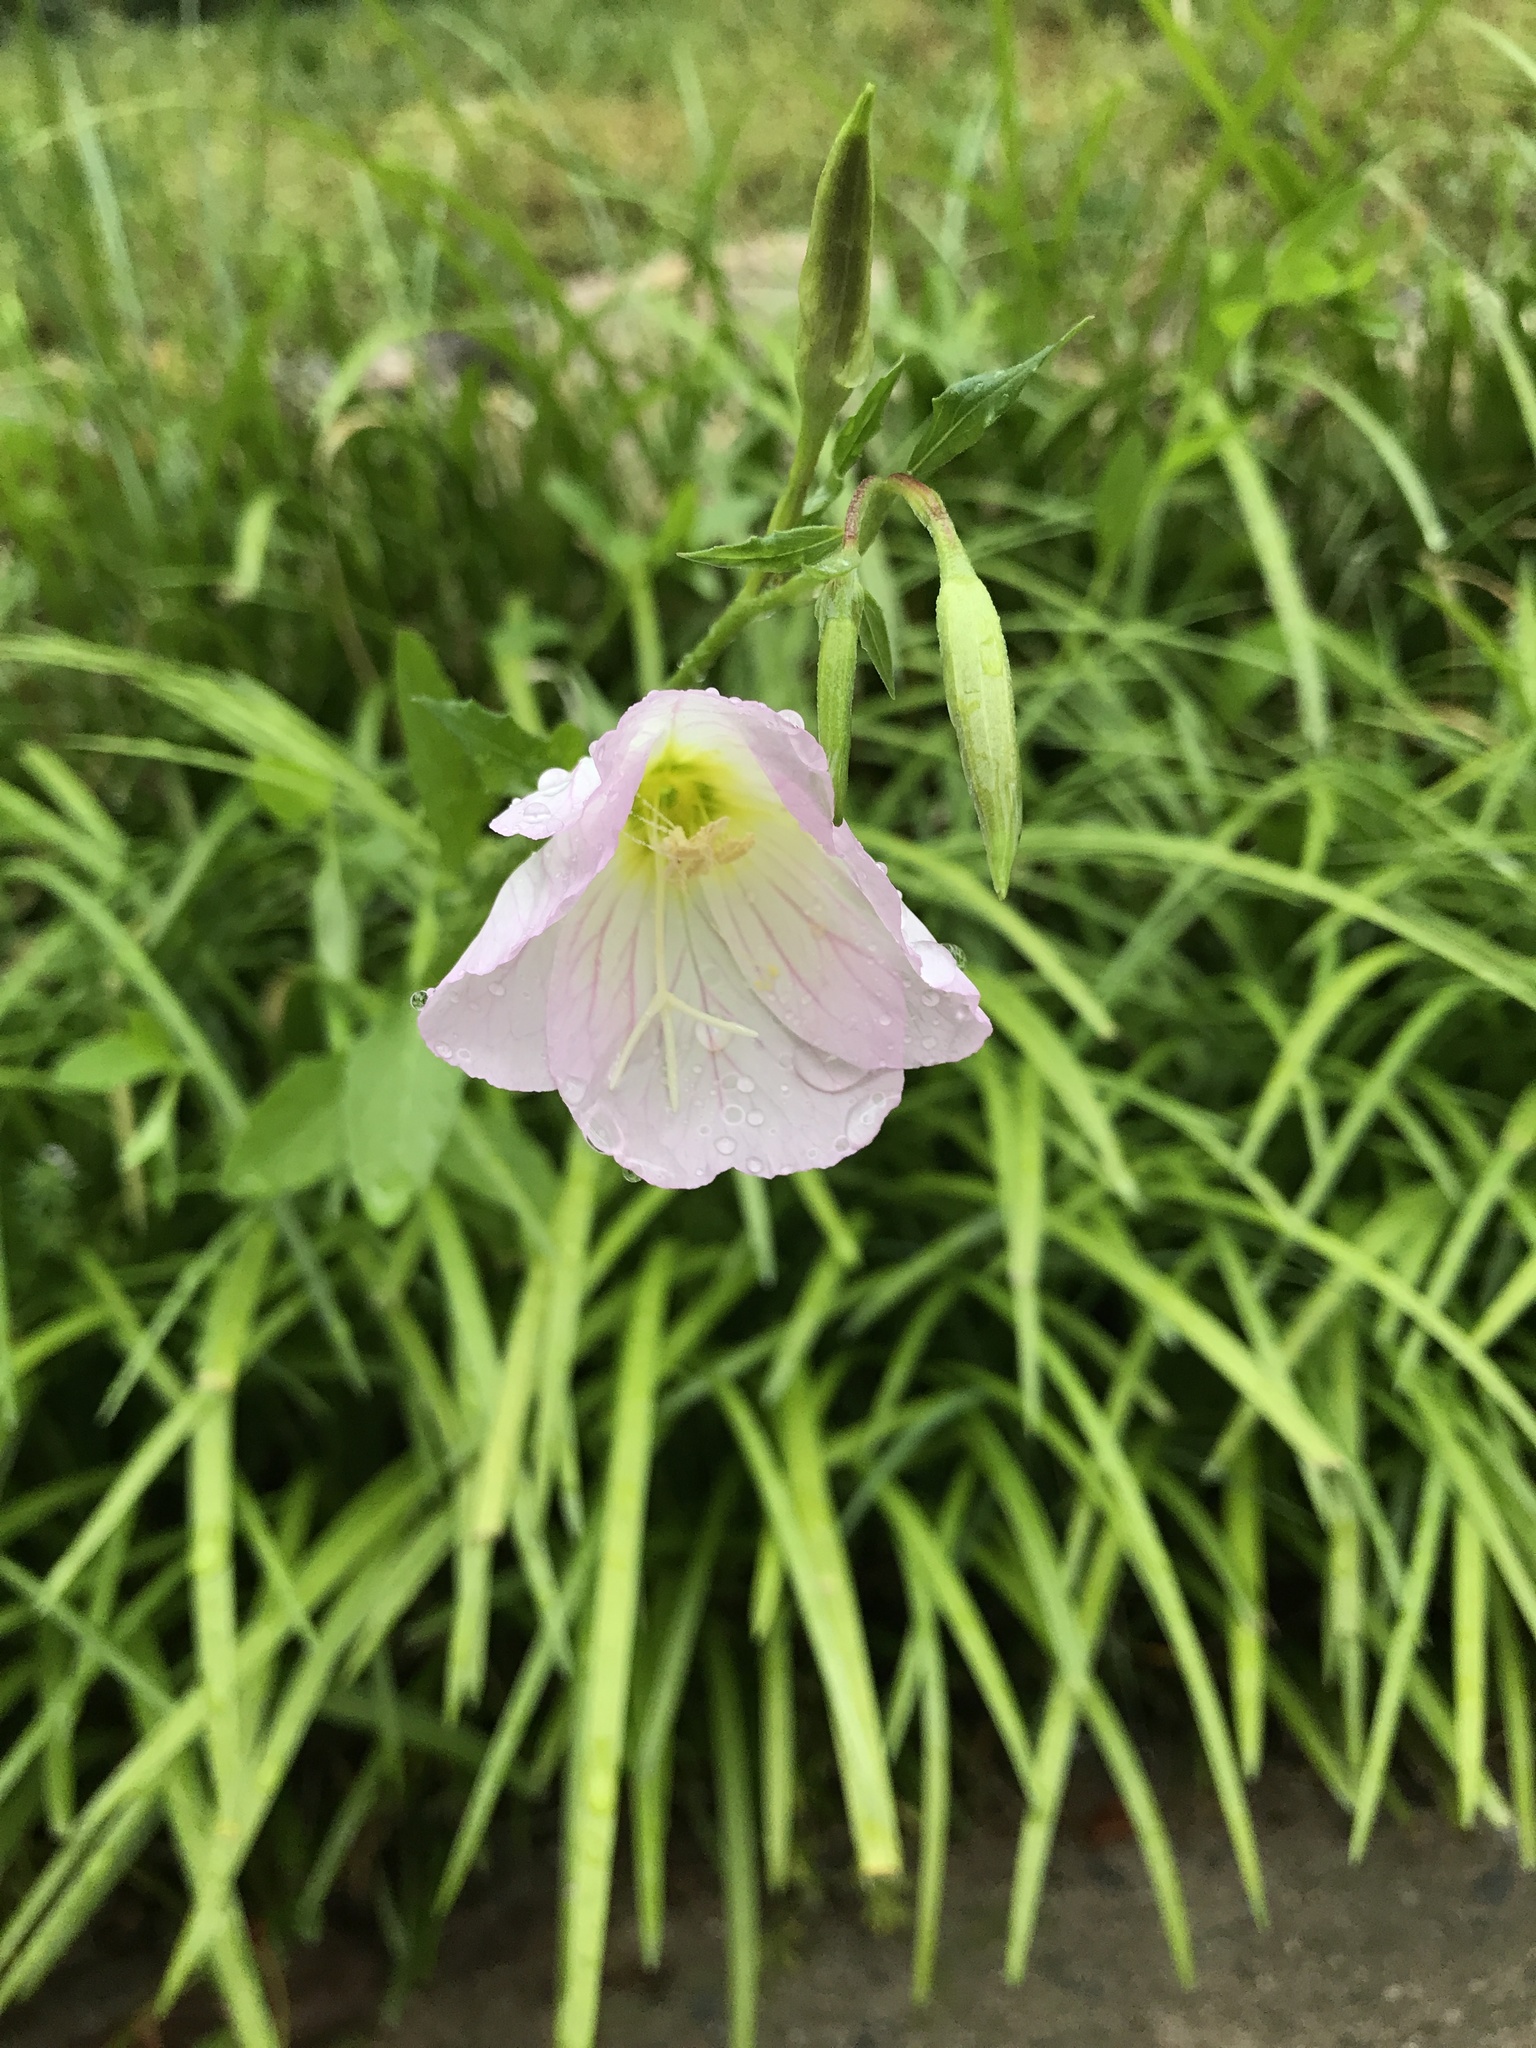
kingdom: Plantae
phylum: Tracheophyta
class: Magnoliopsida
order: Myrtales
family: Onagraceae
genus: Oenothera
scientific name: Oenothera speciosa
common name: White evening-primrose
